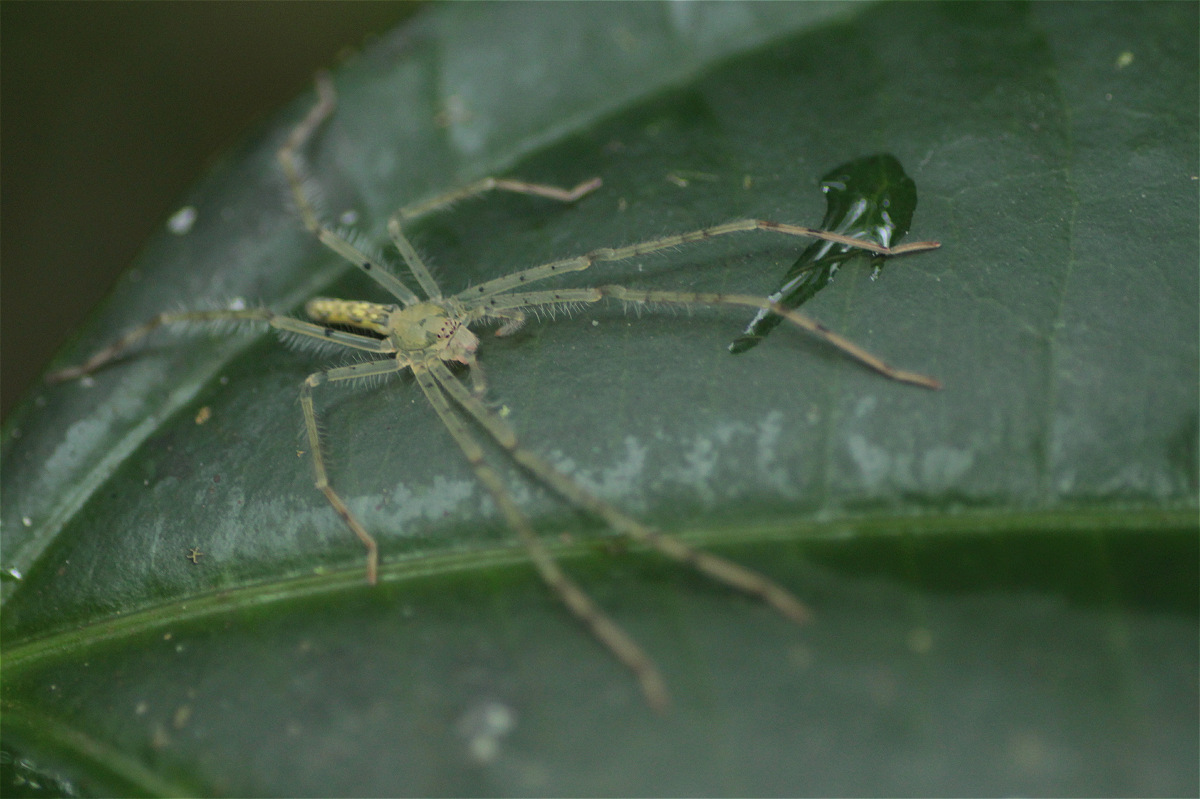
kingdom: Animalia
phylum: Arthropoda
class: Arachnida
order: Araneae
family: Sparassidae
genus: Anaptomecus
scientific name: Anaptomecus suni
